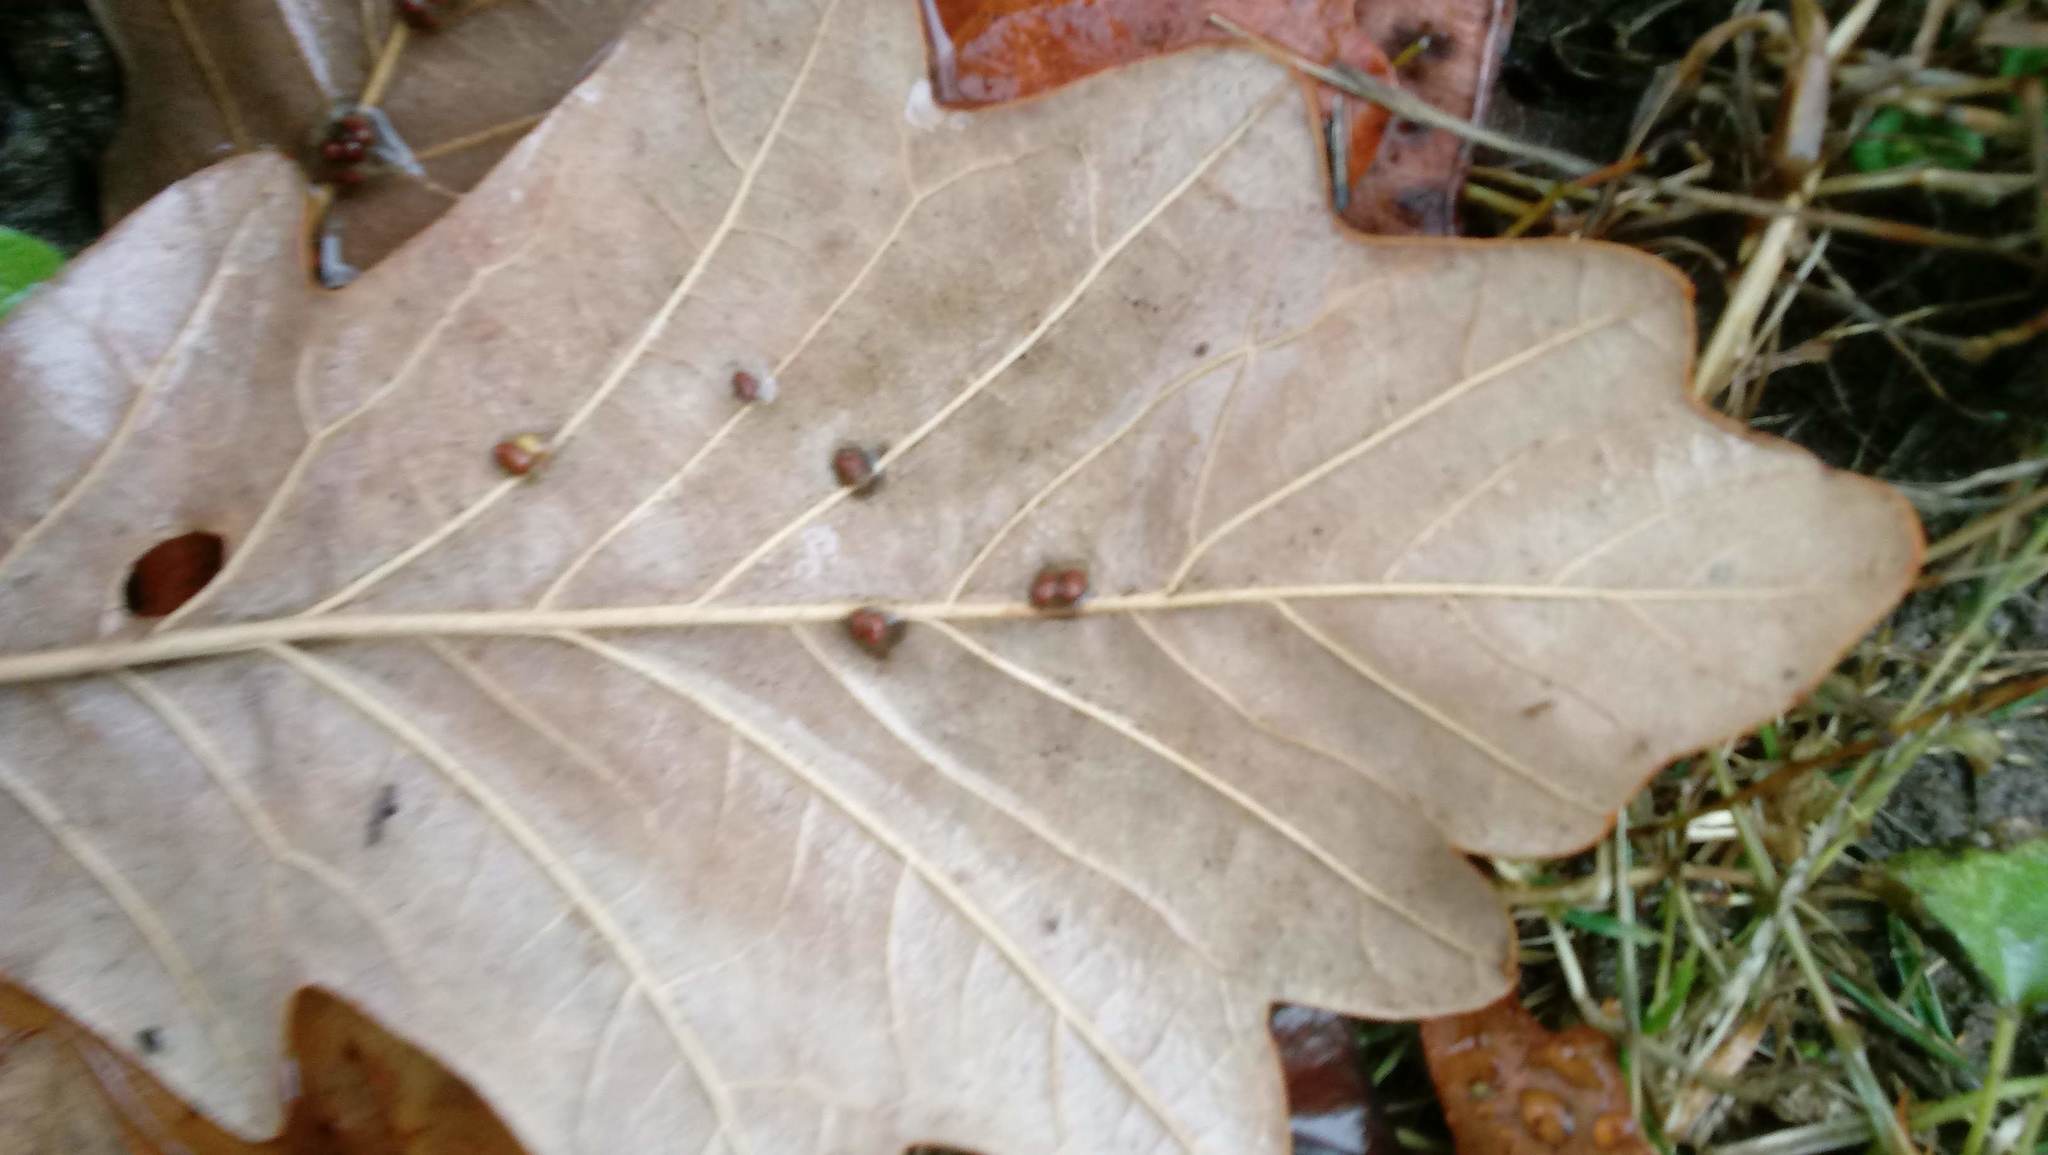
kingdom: Animalia
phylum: Arthropoda
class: Insecta
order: Hymenoptera
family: Cynipidae
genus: Andricus
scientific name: Andricus Druon ignotum
